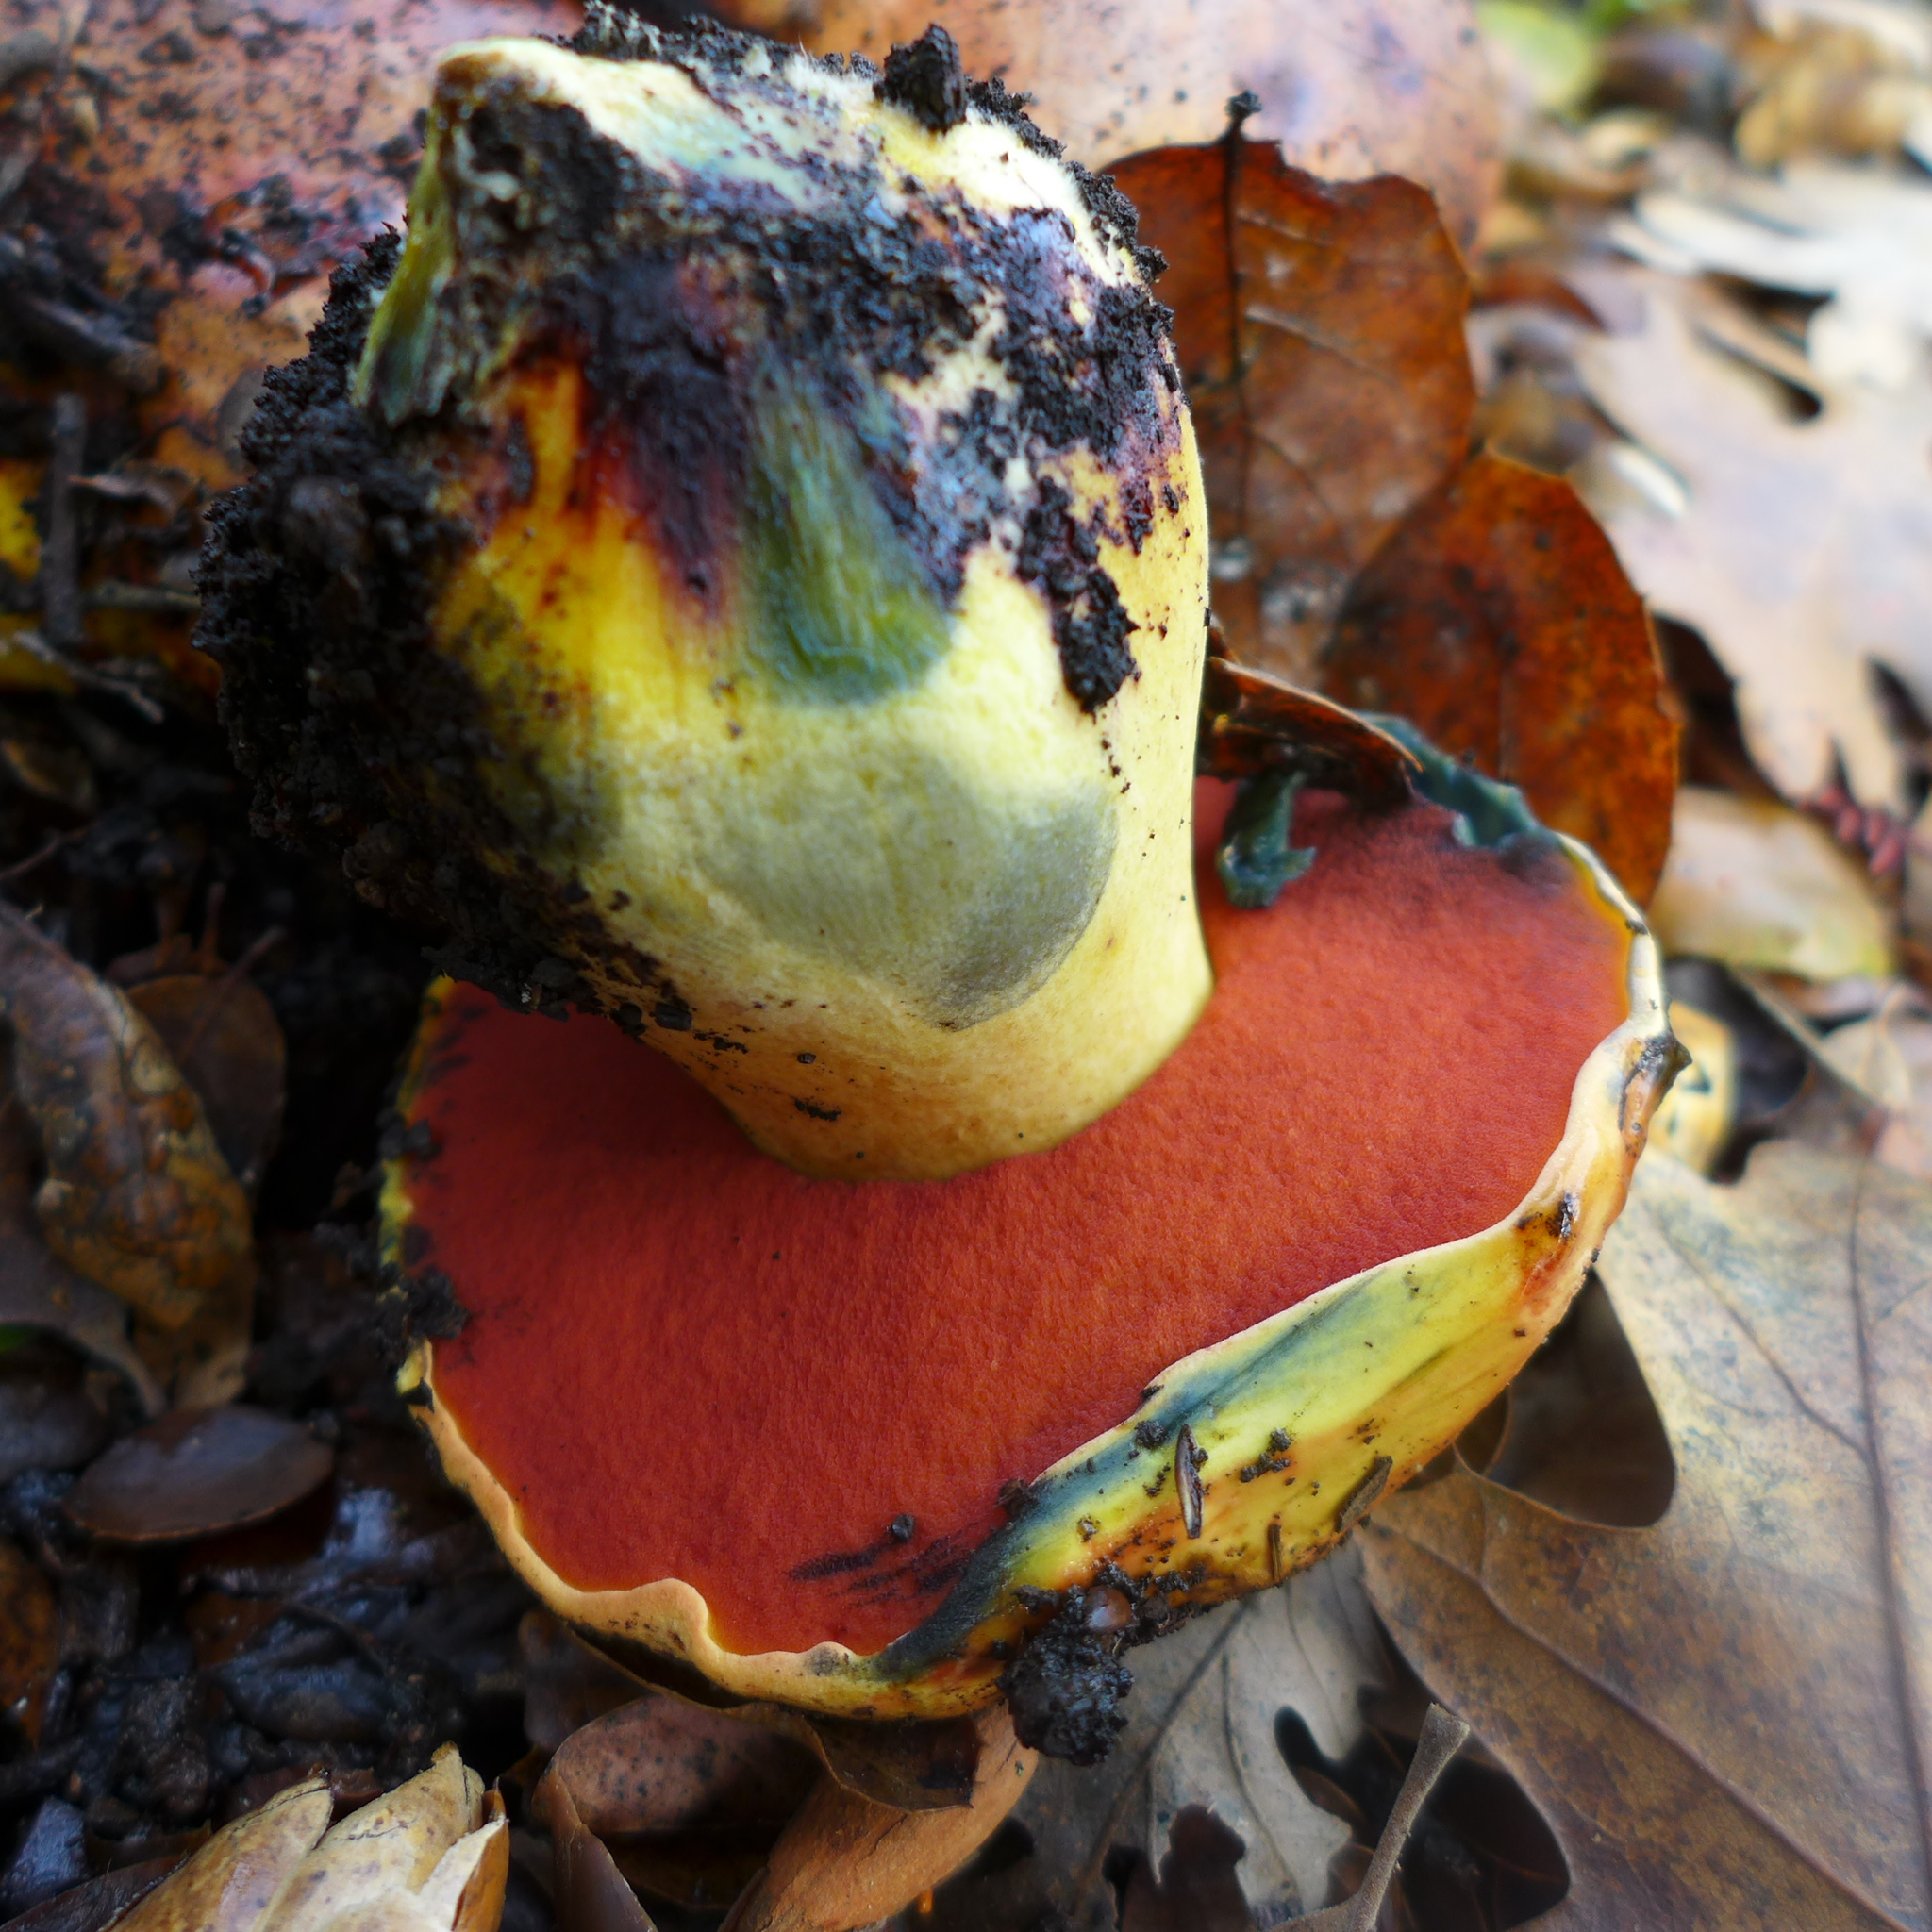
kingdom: Fungi
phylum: Basidiomycota
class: Agaricomycetes
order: Boletales
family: Boletaceae
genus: Suillellus
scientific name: Suillellus amygdalinus
